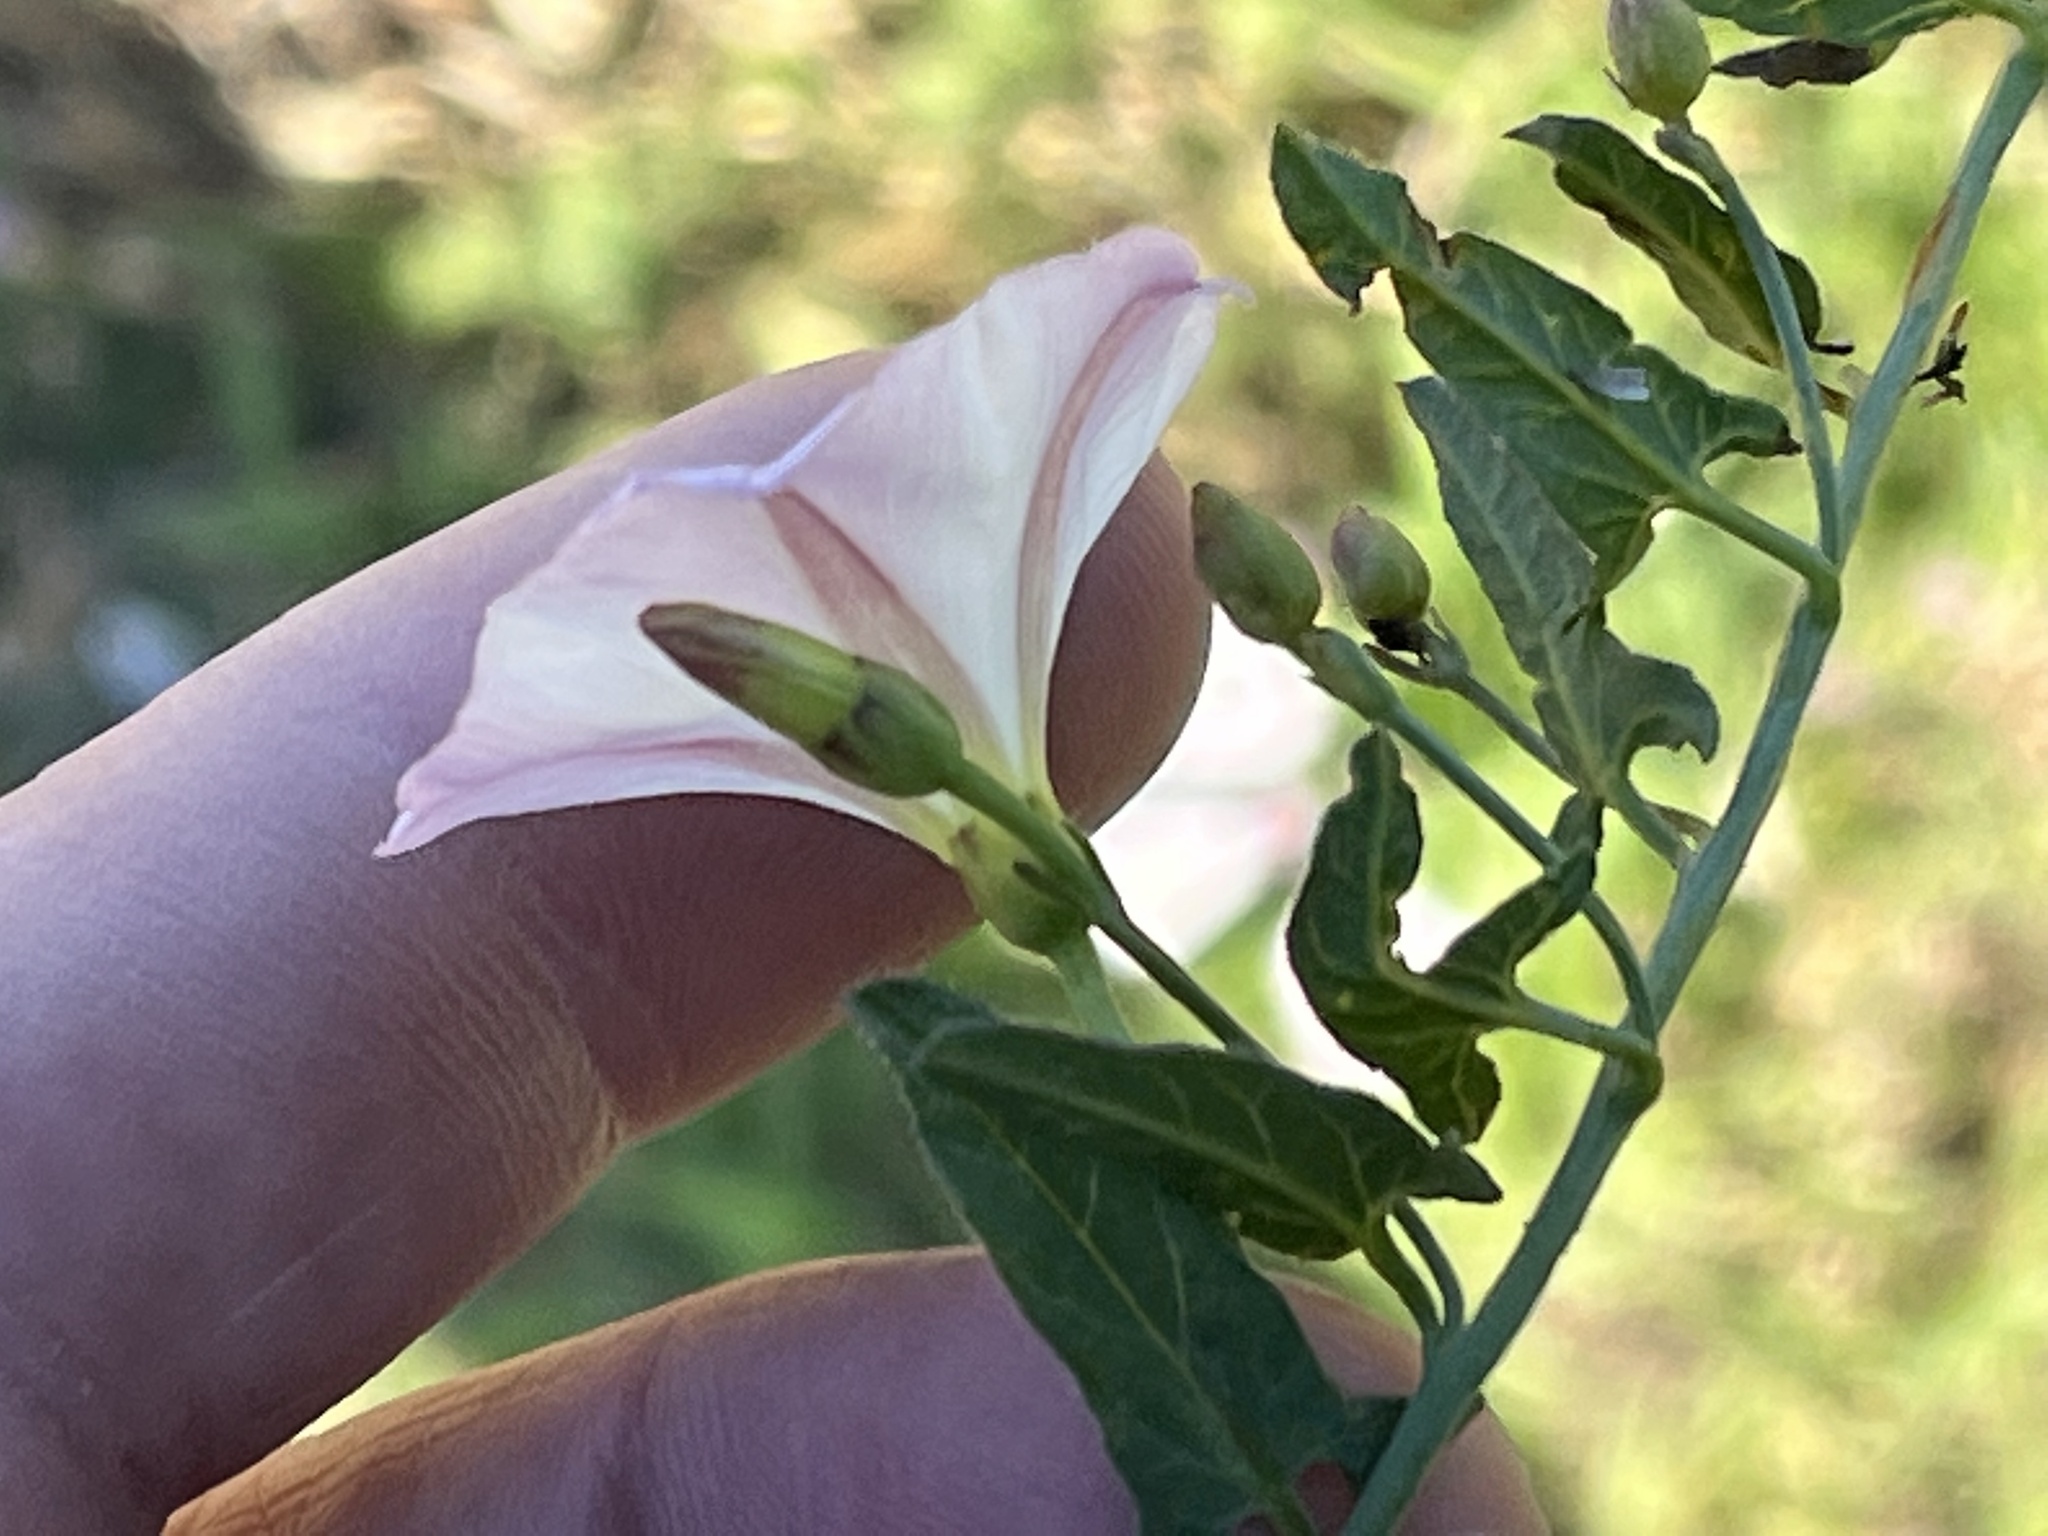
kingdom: Plantae
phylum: Tracheophyta
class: Magnoliopsida
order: Solanales
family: Convolvulaceae
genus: Convolvulus
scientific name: Convolvulus arvensis
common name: Field bindweed
